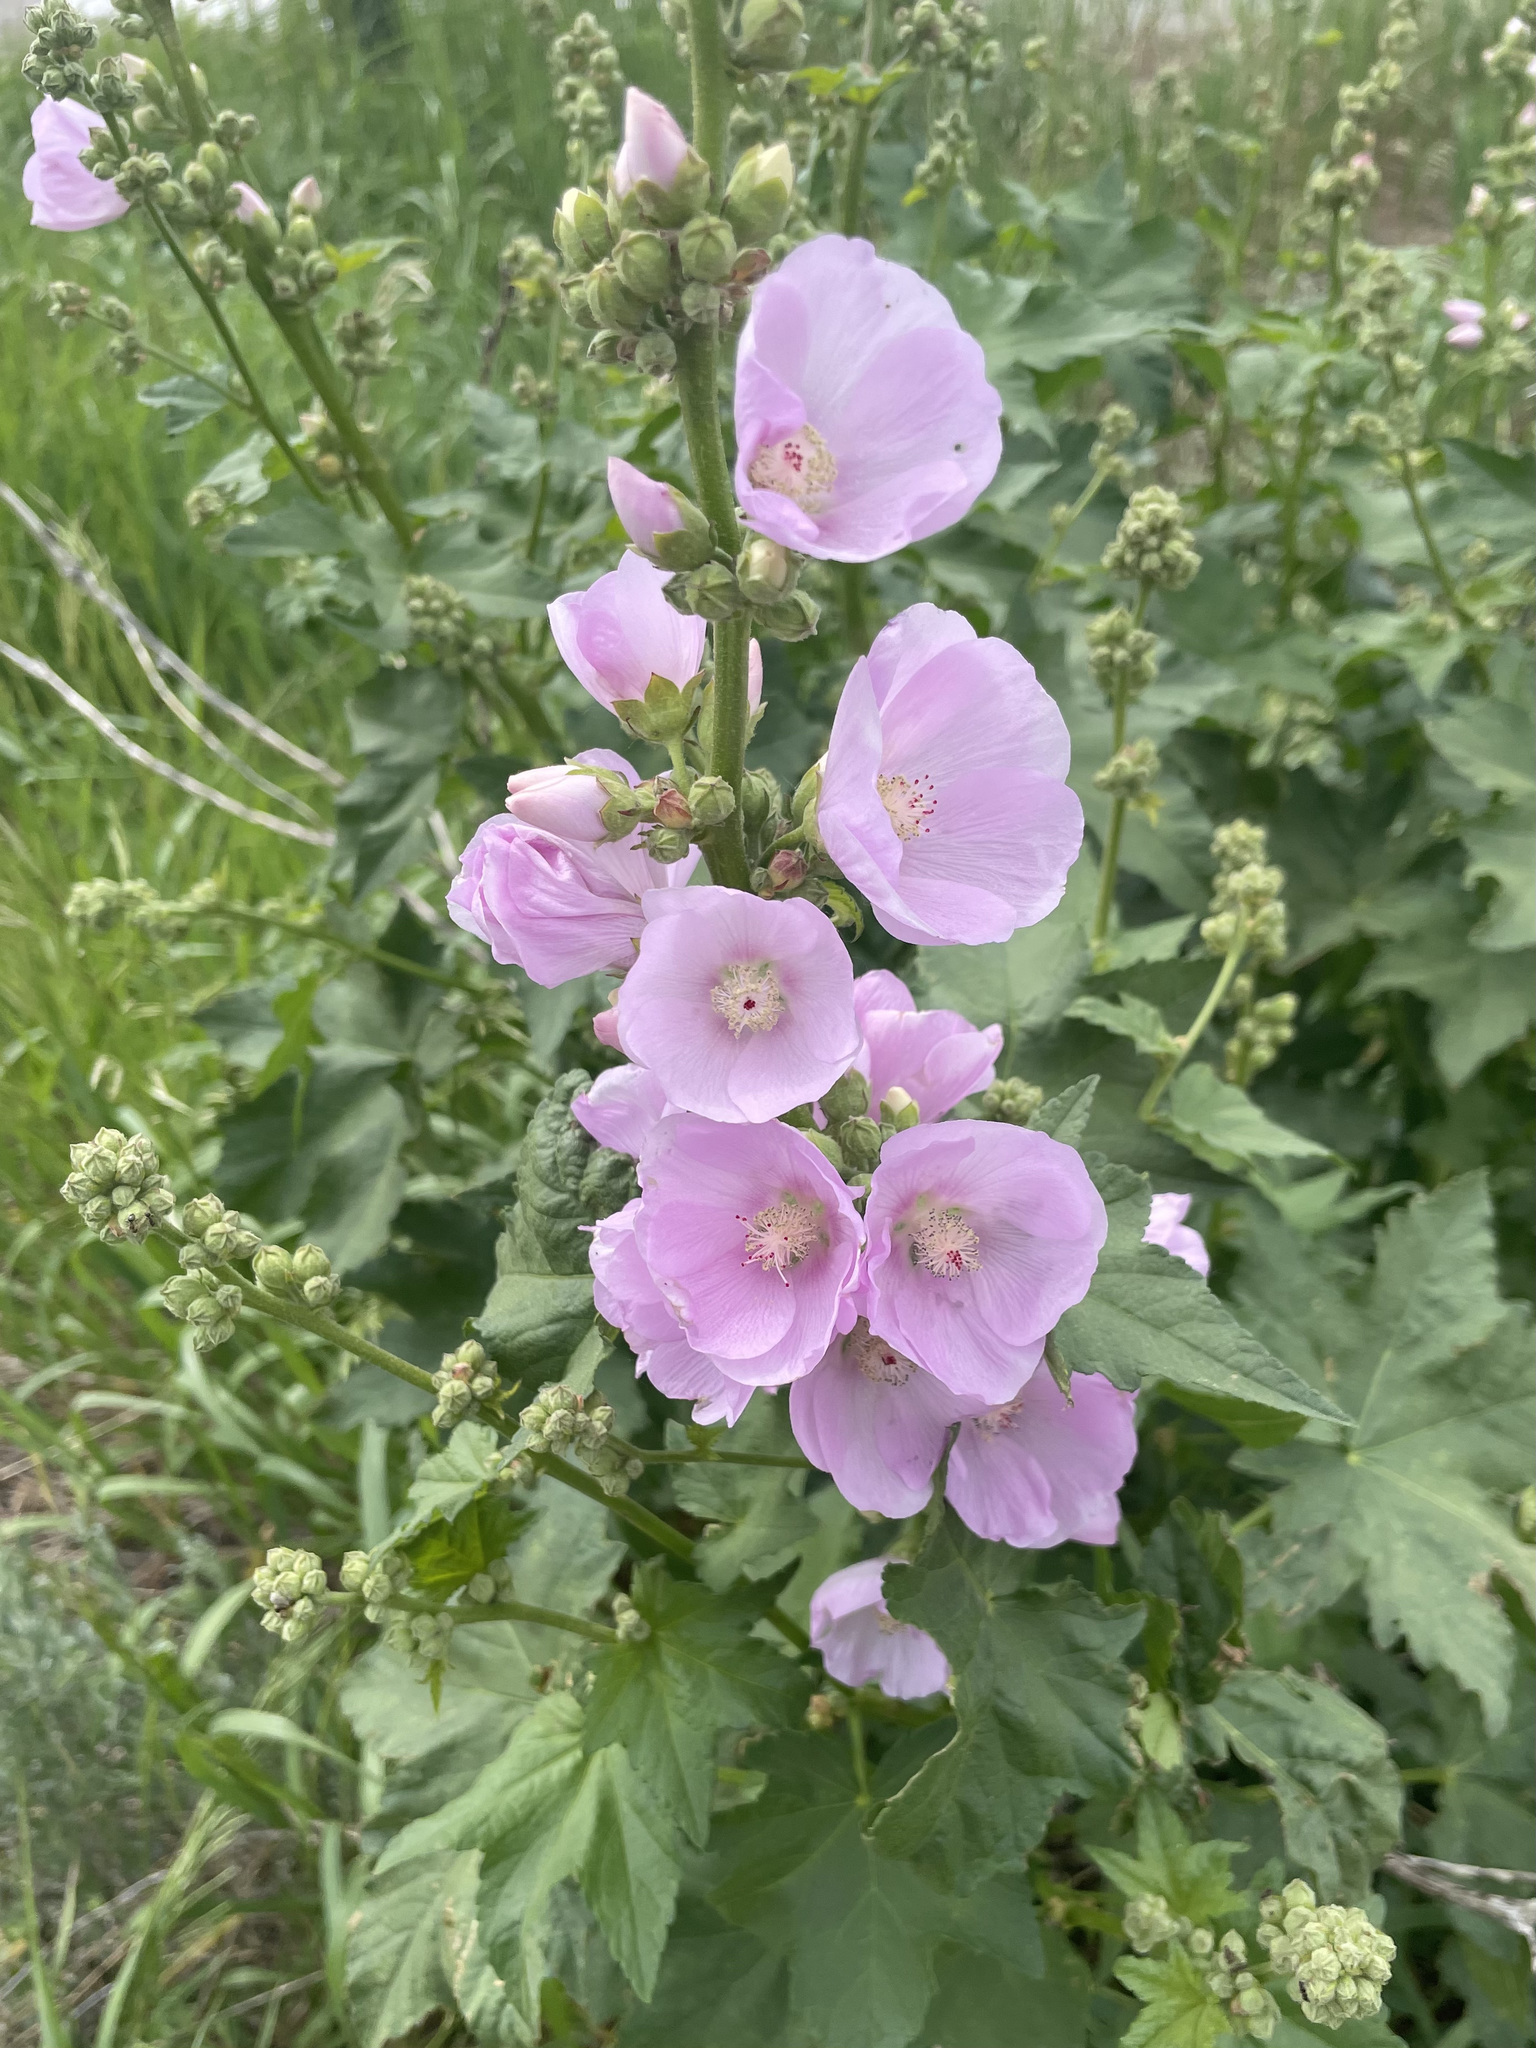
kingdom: Plantae
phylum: Tracheophyta
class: Magnoliopsida
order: Malvales
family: Malvaceae
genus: Iliamna
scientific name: Iliamna rivularis
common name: Wild hollyhock
